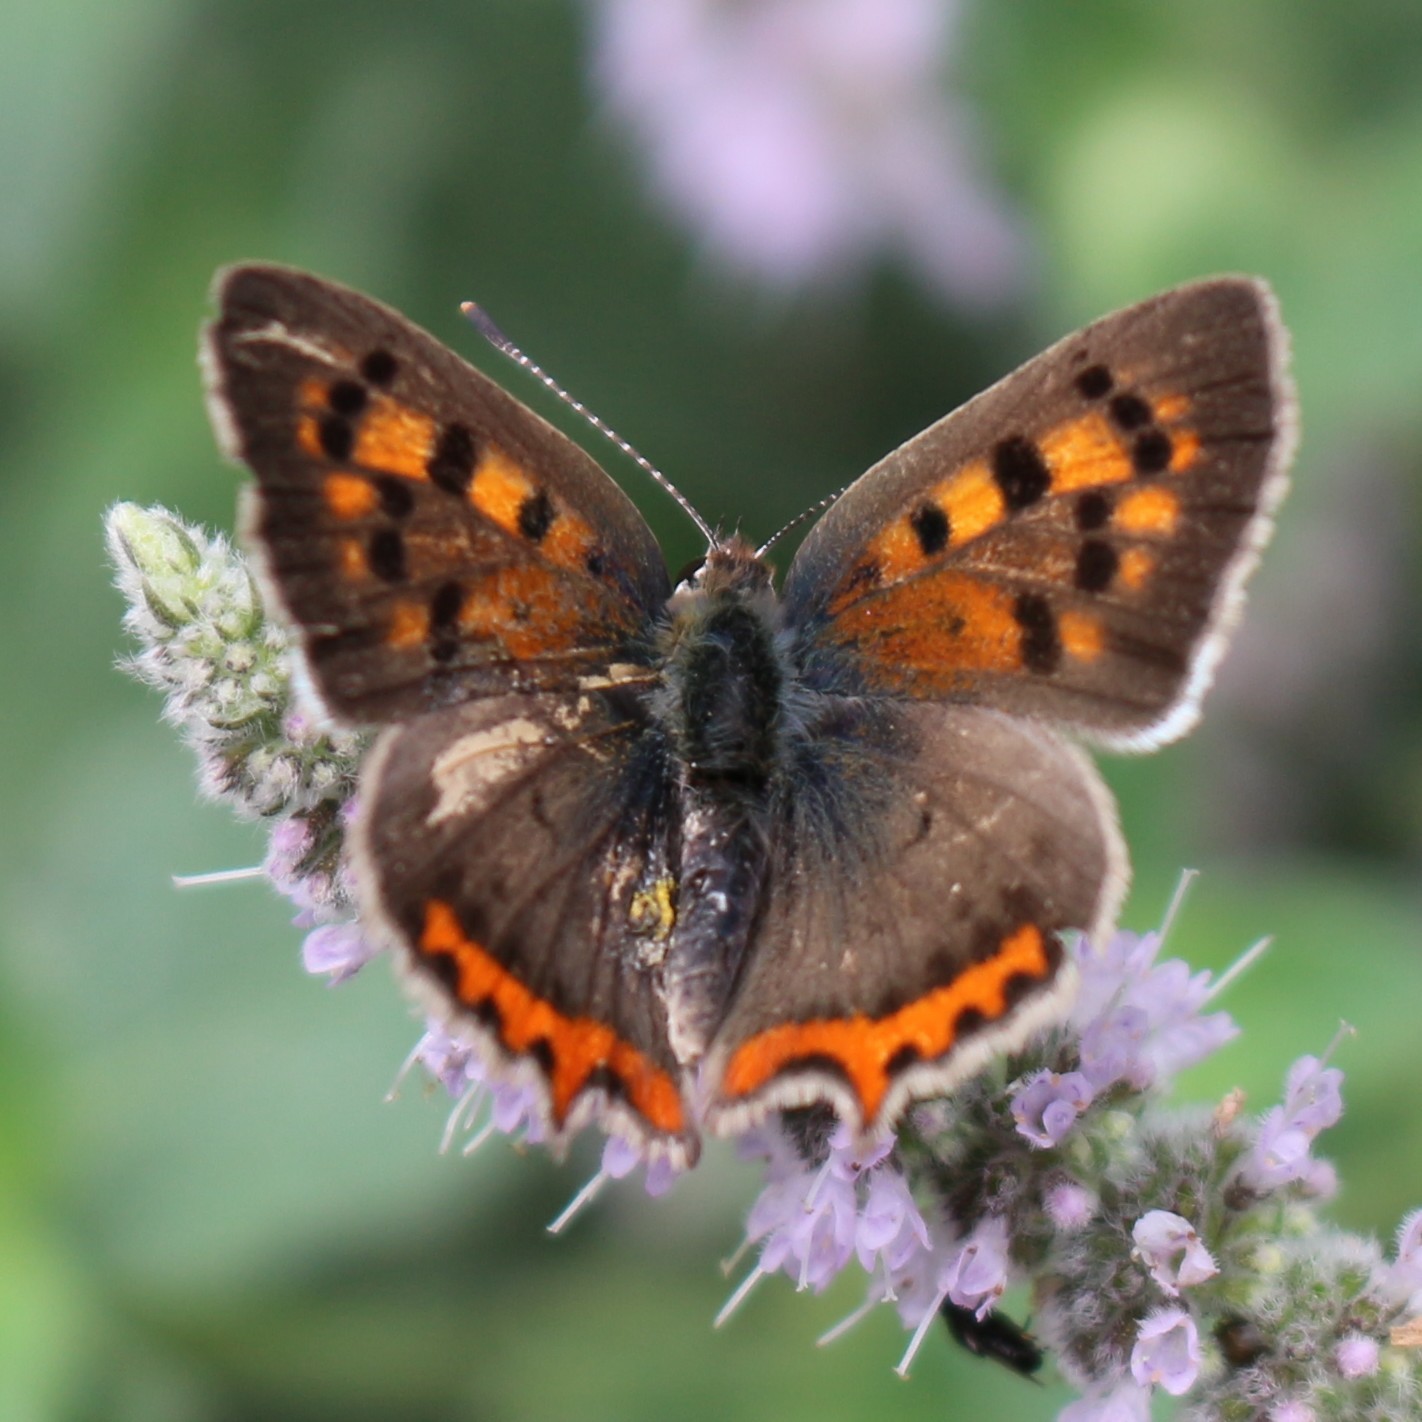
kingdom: Animalia
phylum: Arthropoda
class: Insecta
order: Lepidoptera
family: Lycaenidae
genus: Lycaena
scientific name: Lycaena phlaeas
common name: Small copper
